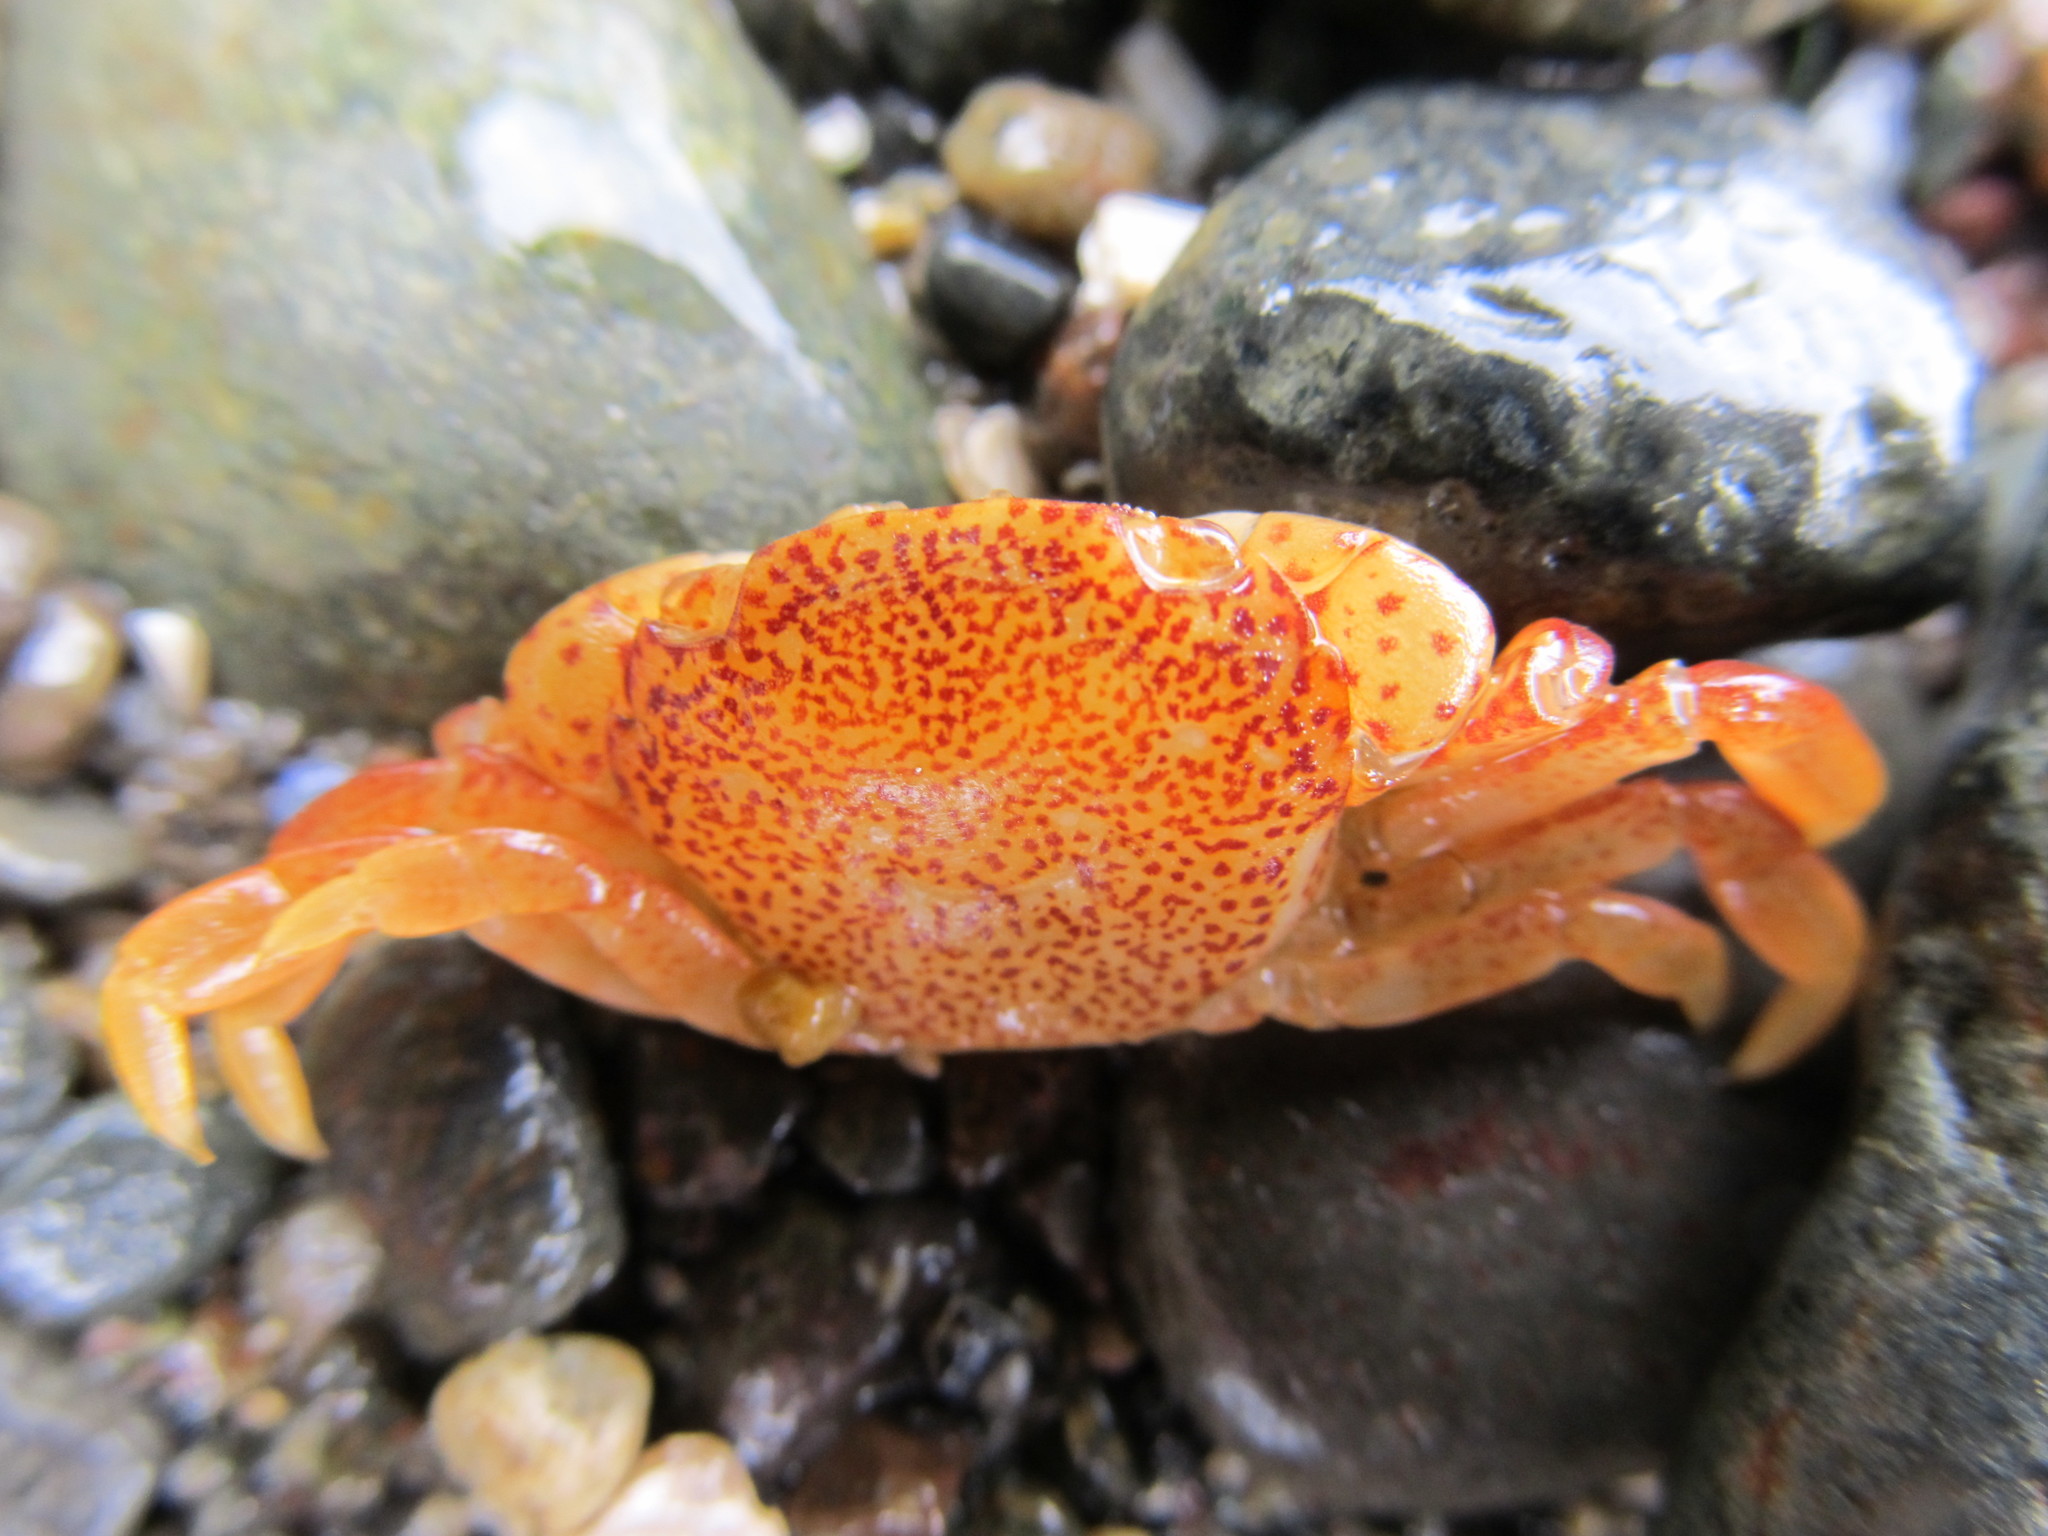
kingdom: Animalia
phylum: Arthropoda
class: Malacostraca
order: Decapoda
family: Varunidae
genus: Hemigrapsus
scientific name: Hemigrapsus nudus
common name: Purple shore crab
